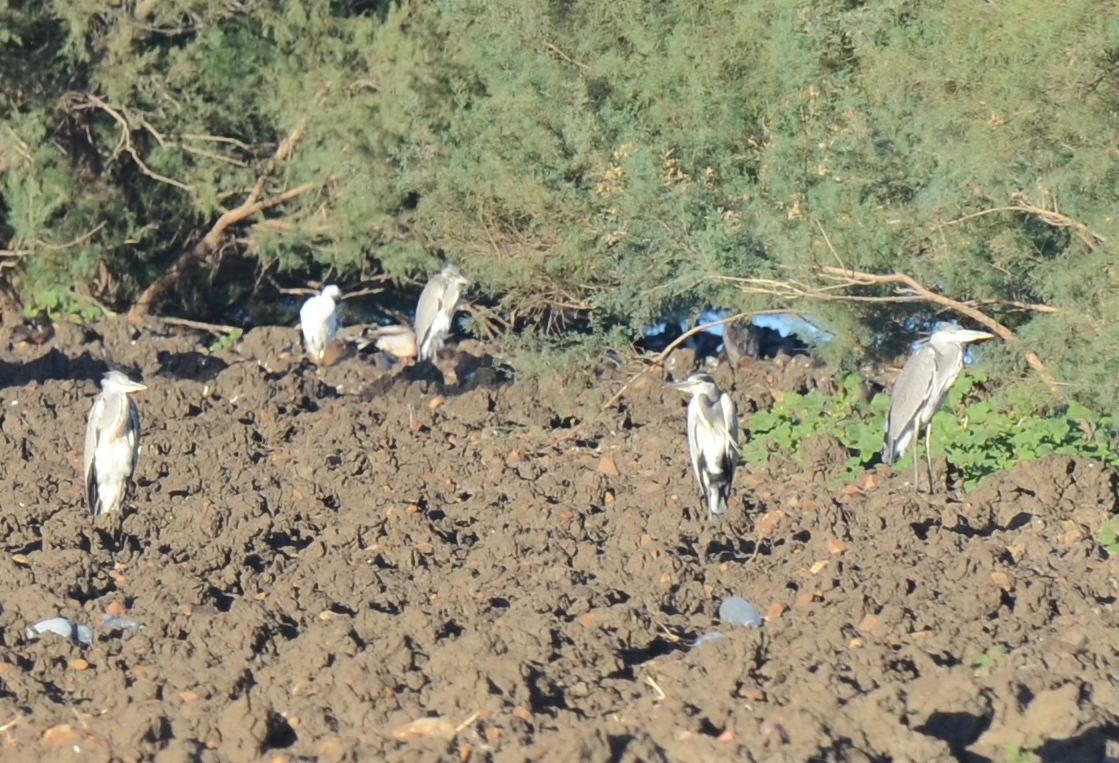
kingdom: Animalia
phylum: Chordata
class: Aves
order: Pelecaniformes
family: Ardeidae
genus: Ardea
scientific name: Ardea cinerea
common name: Grey heron
